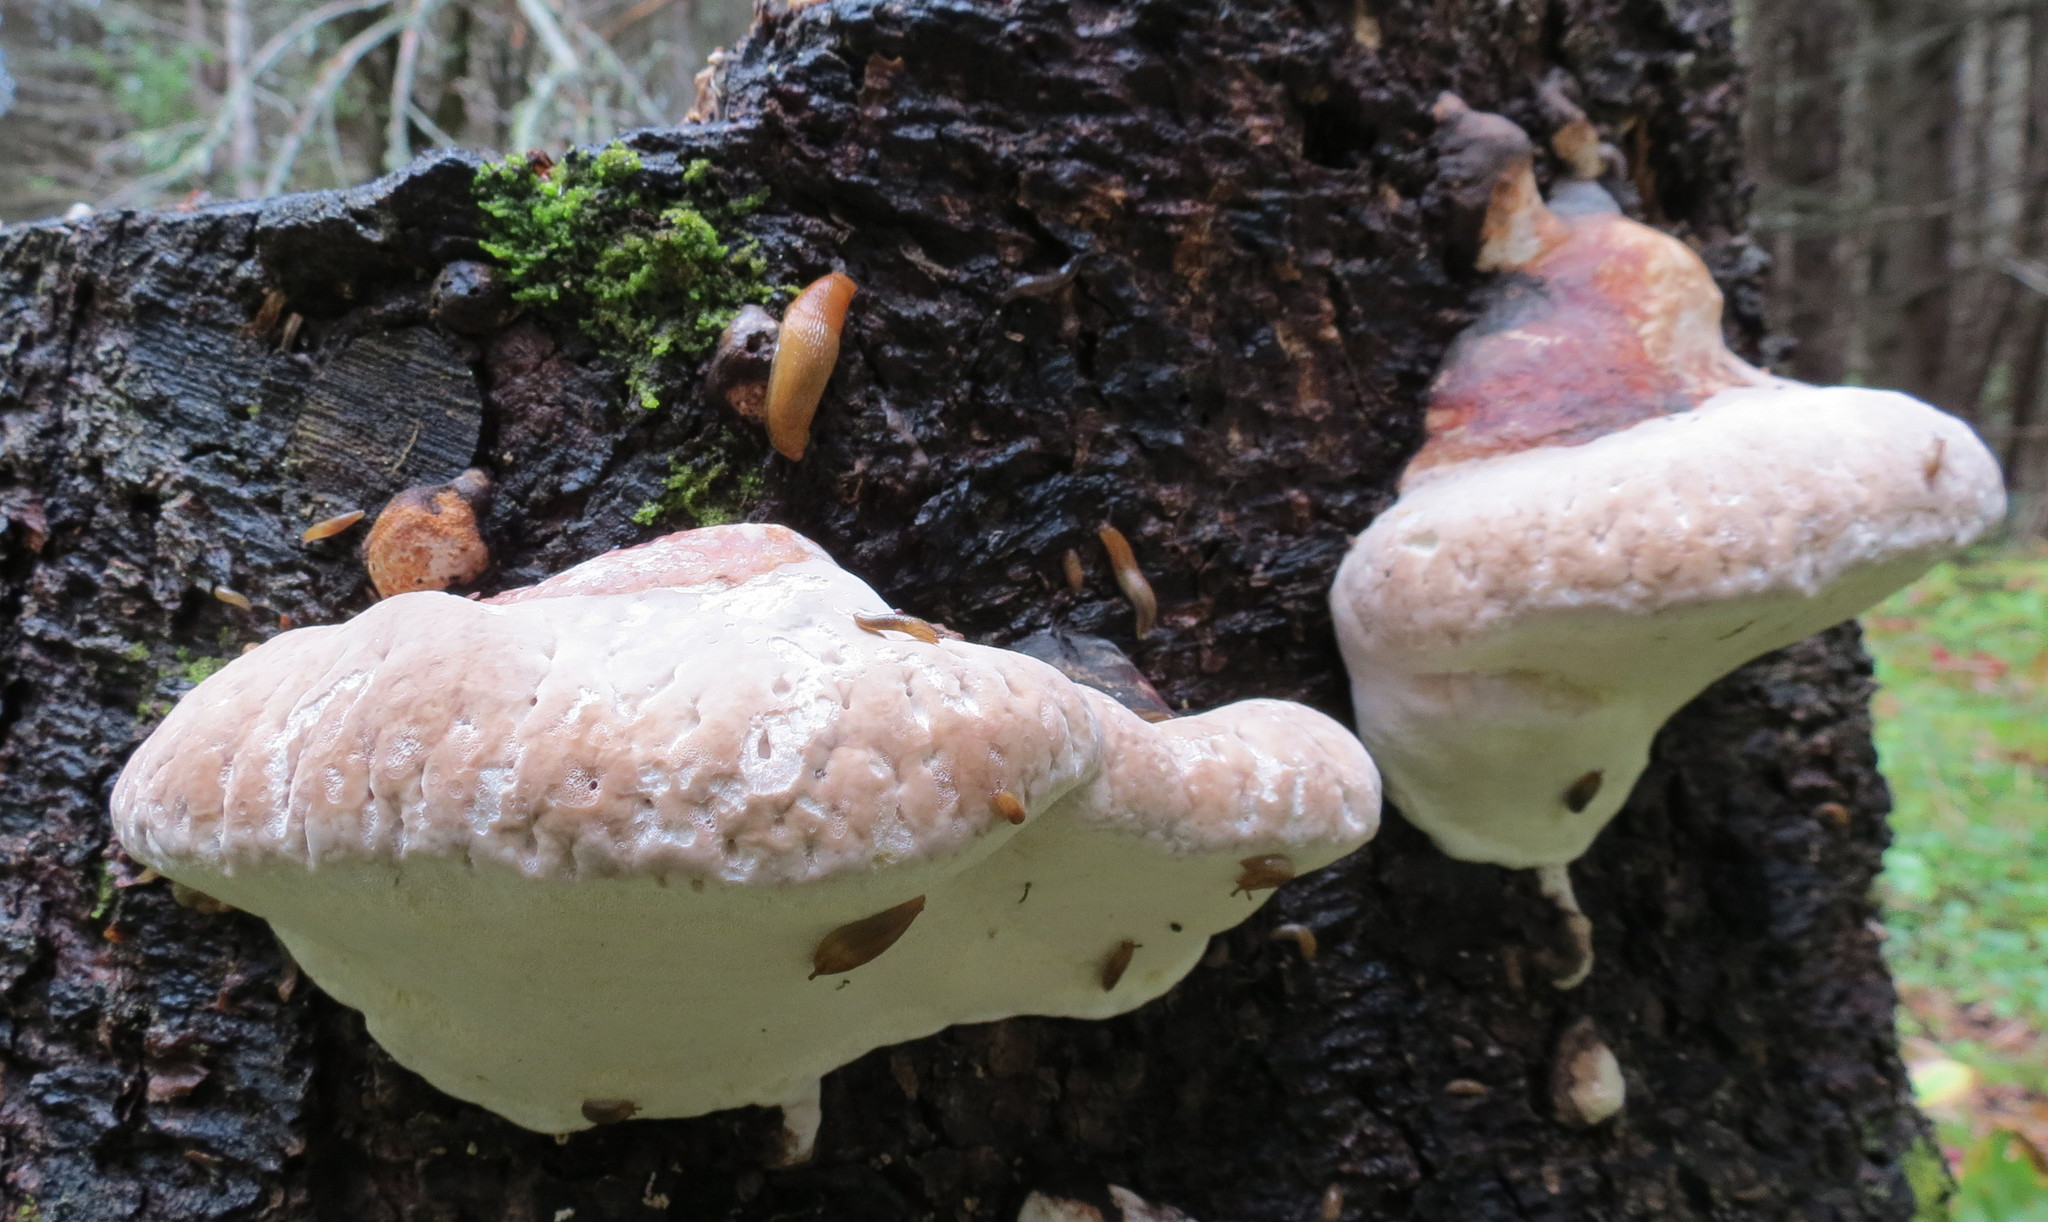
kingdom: Fungi
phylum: Basidiomycota
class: Agaricomycetes
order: Polyporales
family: Fomitopsidaceae
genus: Fomitopsis
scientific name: Fomitopsis mounceae
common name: Northern red belt
